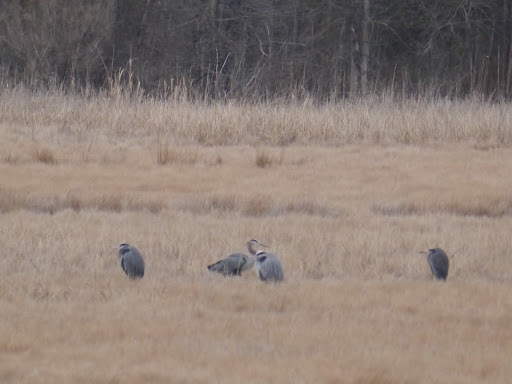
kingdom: Animalia
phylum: Chordata
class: Aves
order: Pelecaniformes
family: Ardeidae
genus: Ardea
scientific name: Ardea herodias
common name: Great blue heron
